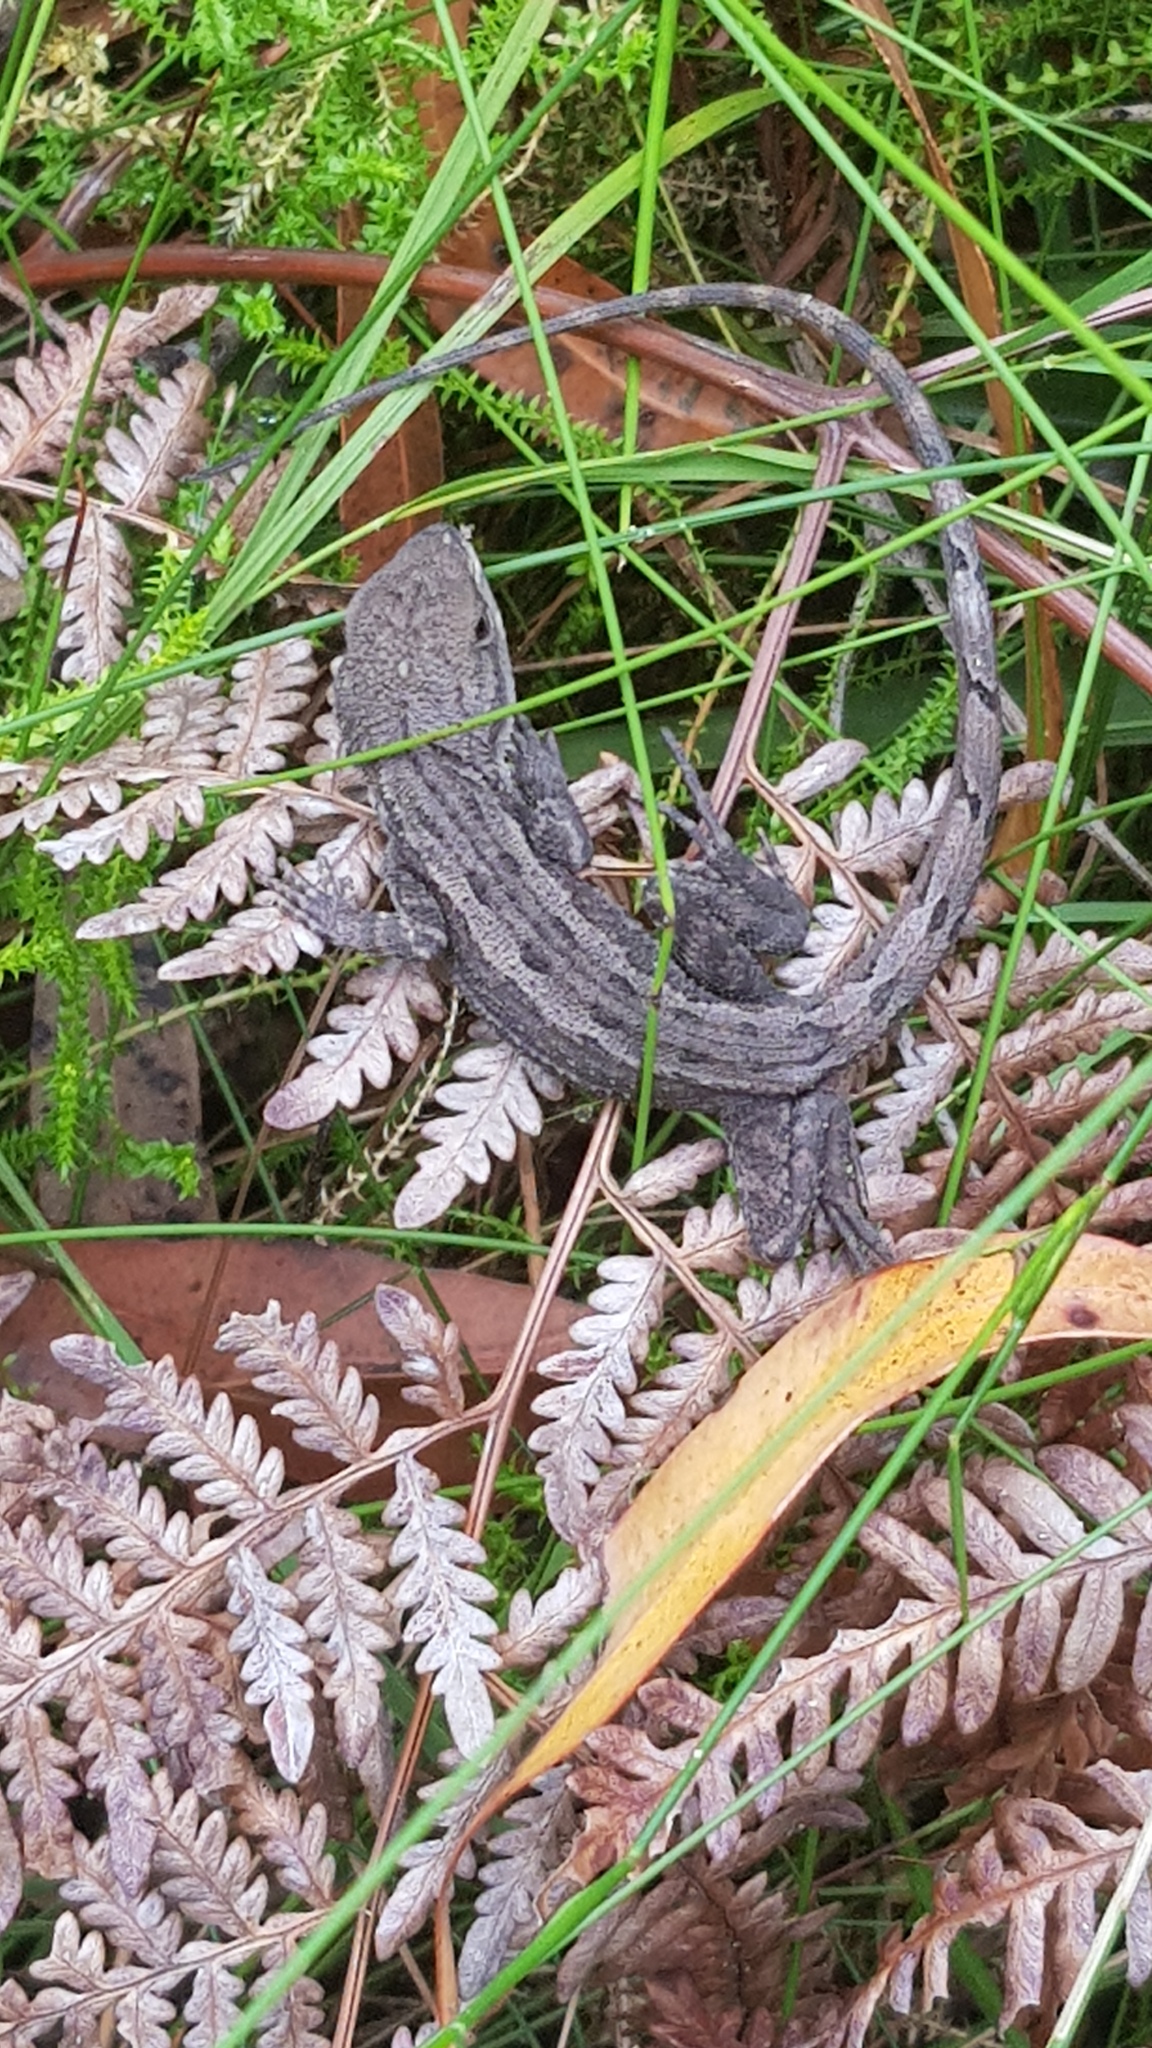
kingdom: Animalia
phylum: Chordata
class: Squamata
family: Agamidae
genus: Amphibolurus
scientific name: Amphibolurus muricatus
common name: Jacky lizard
